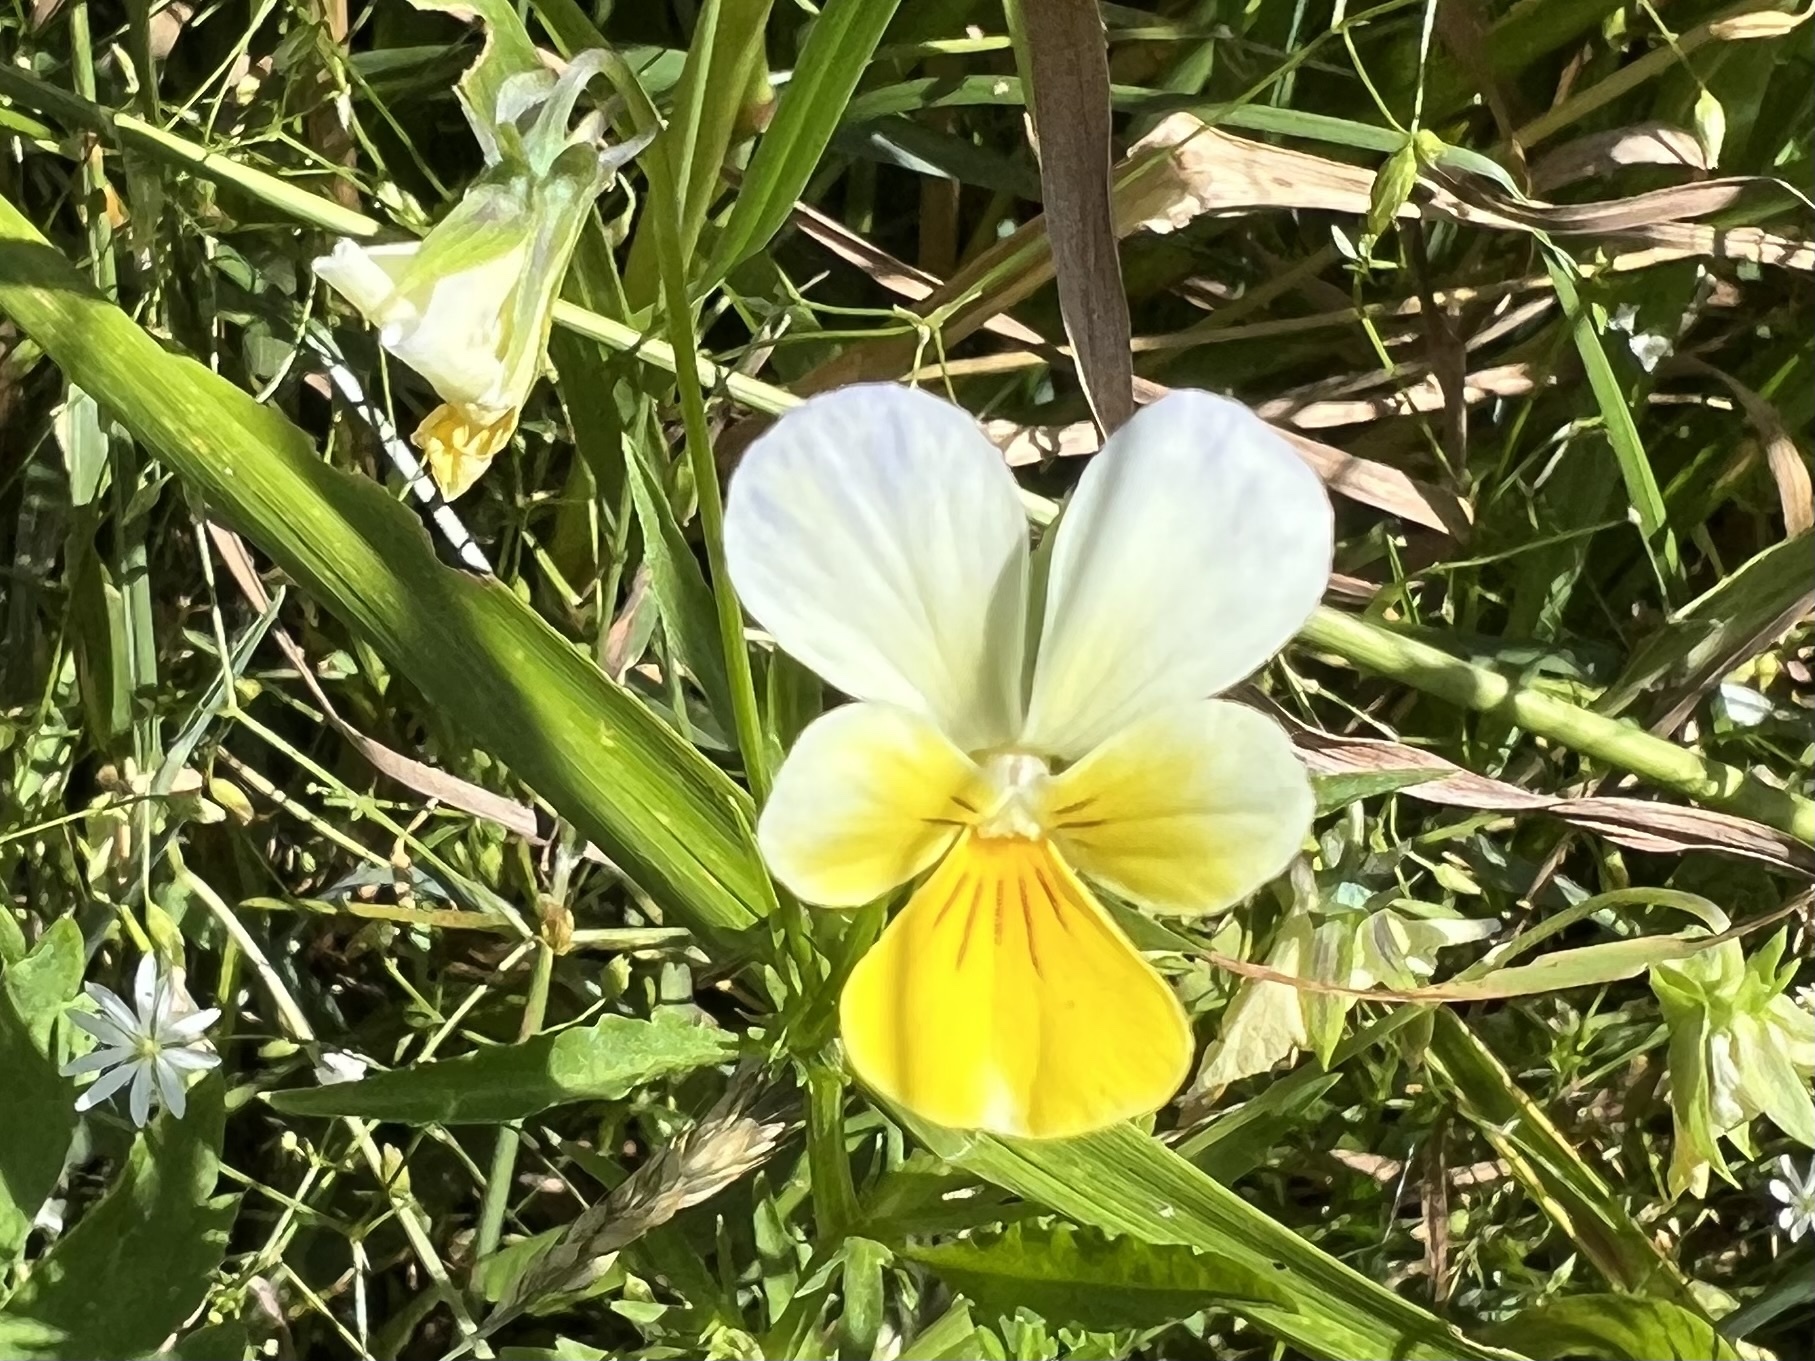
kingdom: Plantae
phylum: Tracheophyta
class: Magnoliopsida
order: Malpighiales
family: Violaceae
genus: Viola
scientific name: Viola arvensis
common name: Field pansy
